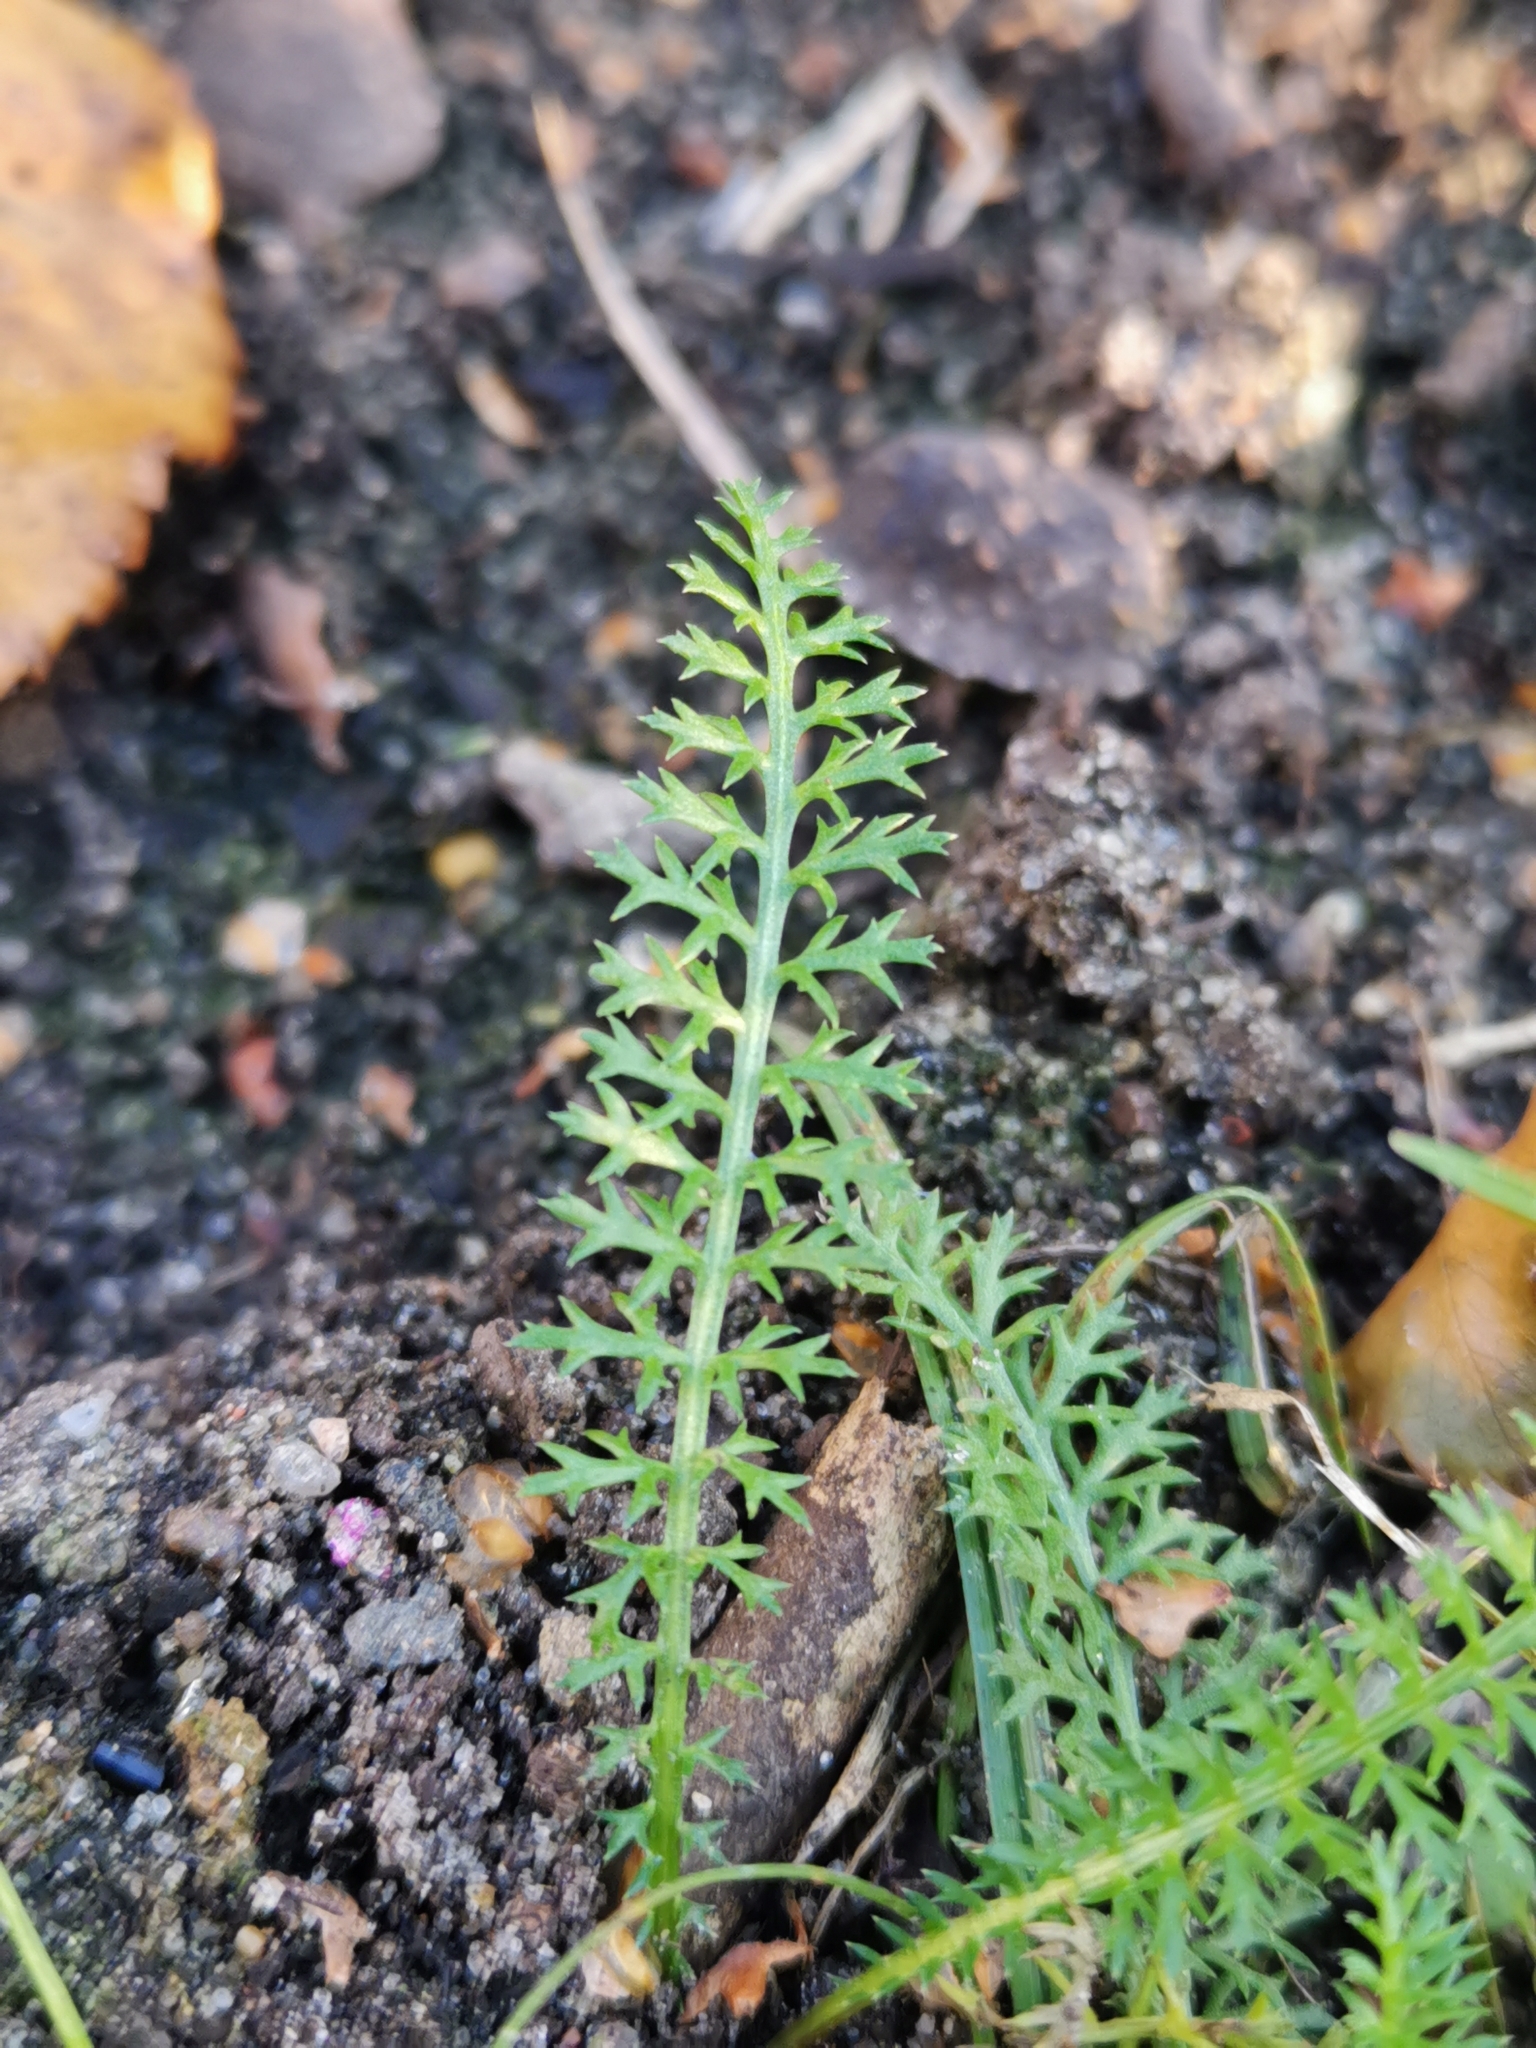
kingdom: Plantae
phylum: Tracheophyta
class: Magnoliopsida
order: Asterales
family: Asteraceae
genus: Achillea
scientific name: Achillea millefolium
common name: Yarrow
